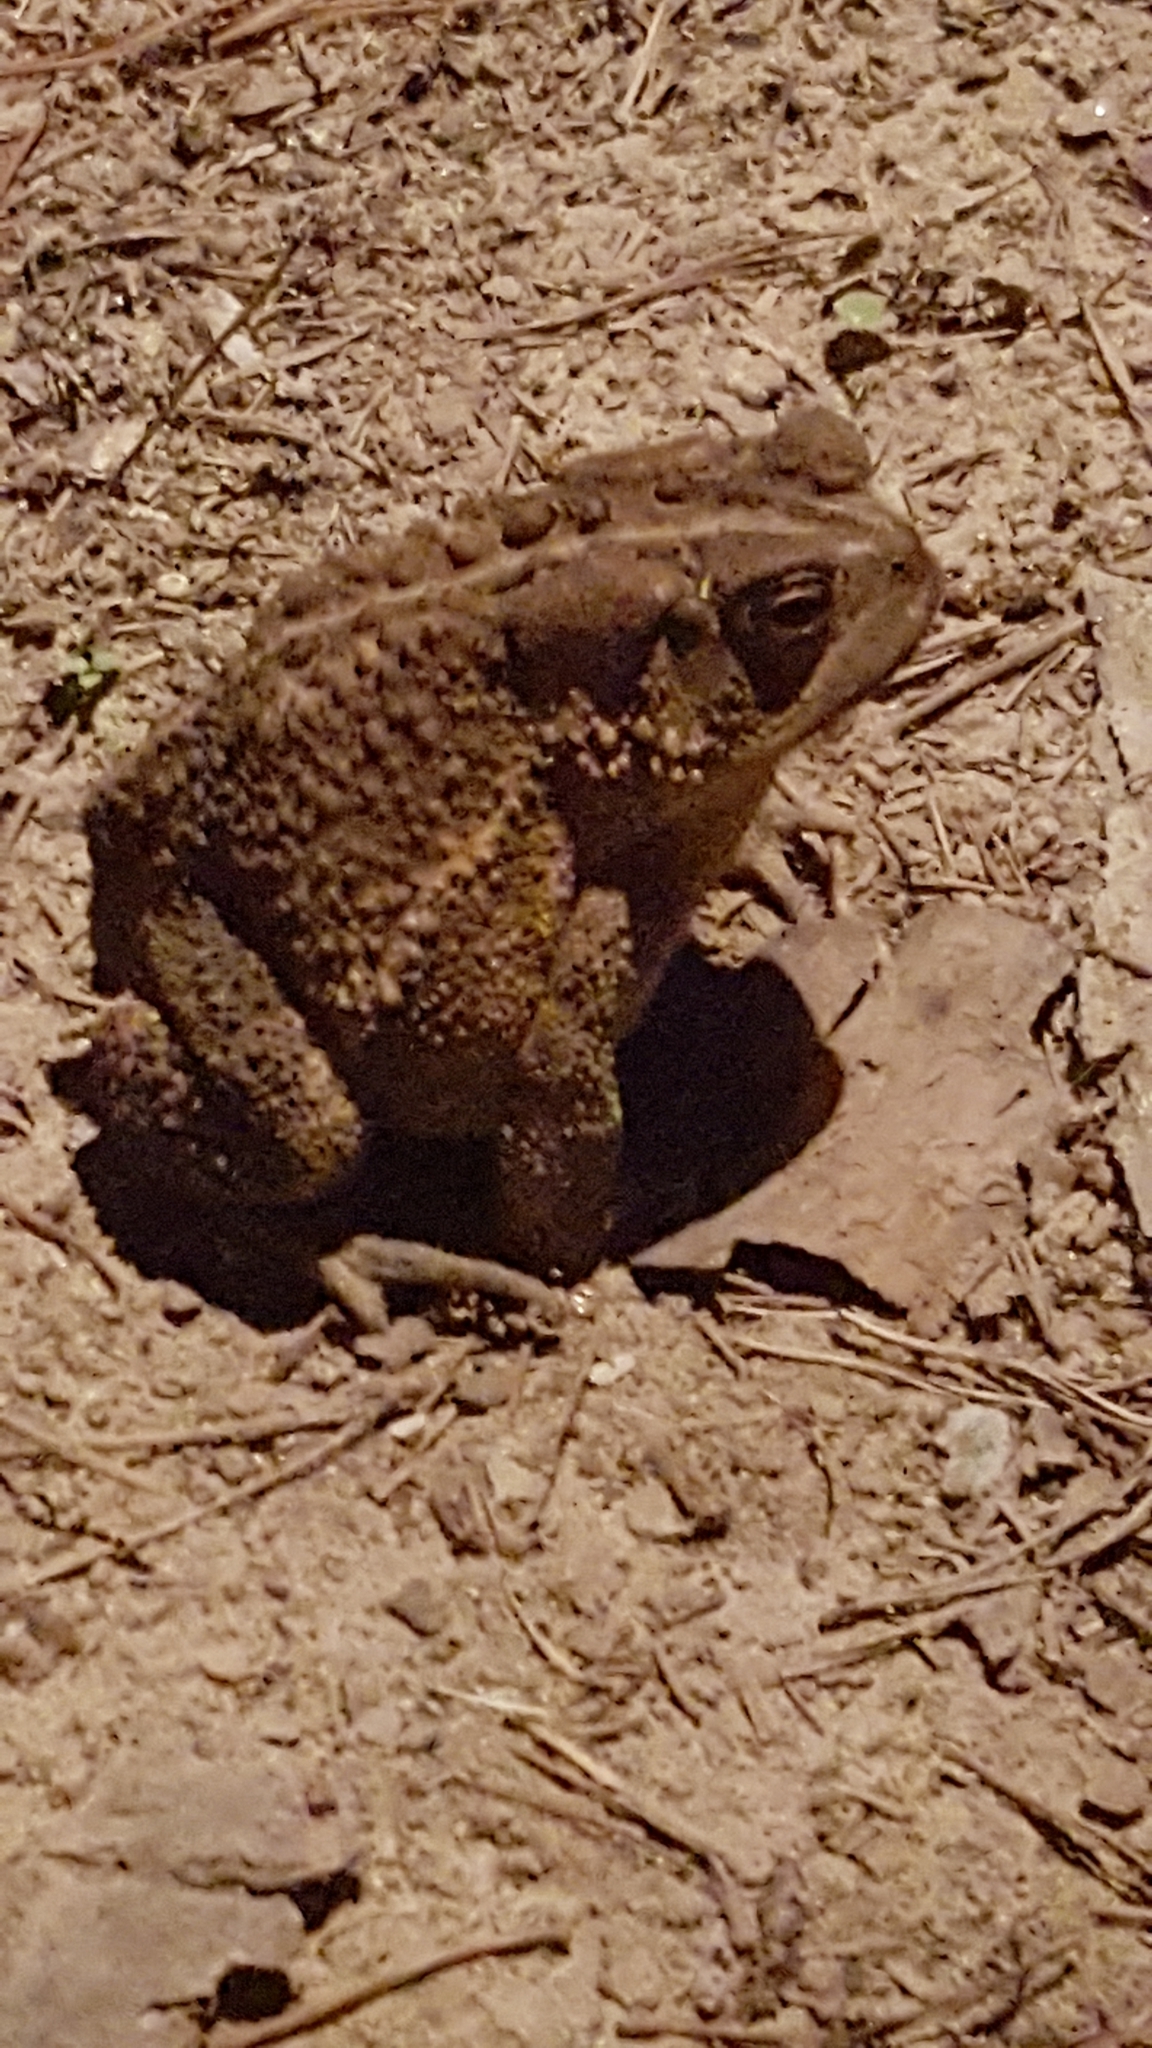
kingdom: Animalia
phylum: Chordata
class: Amphibia
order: Anura
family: Bufonidae
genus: Anaxyrus
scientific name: Anaxyrus americanus
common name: American toad
